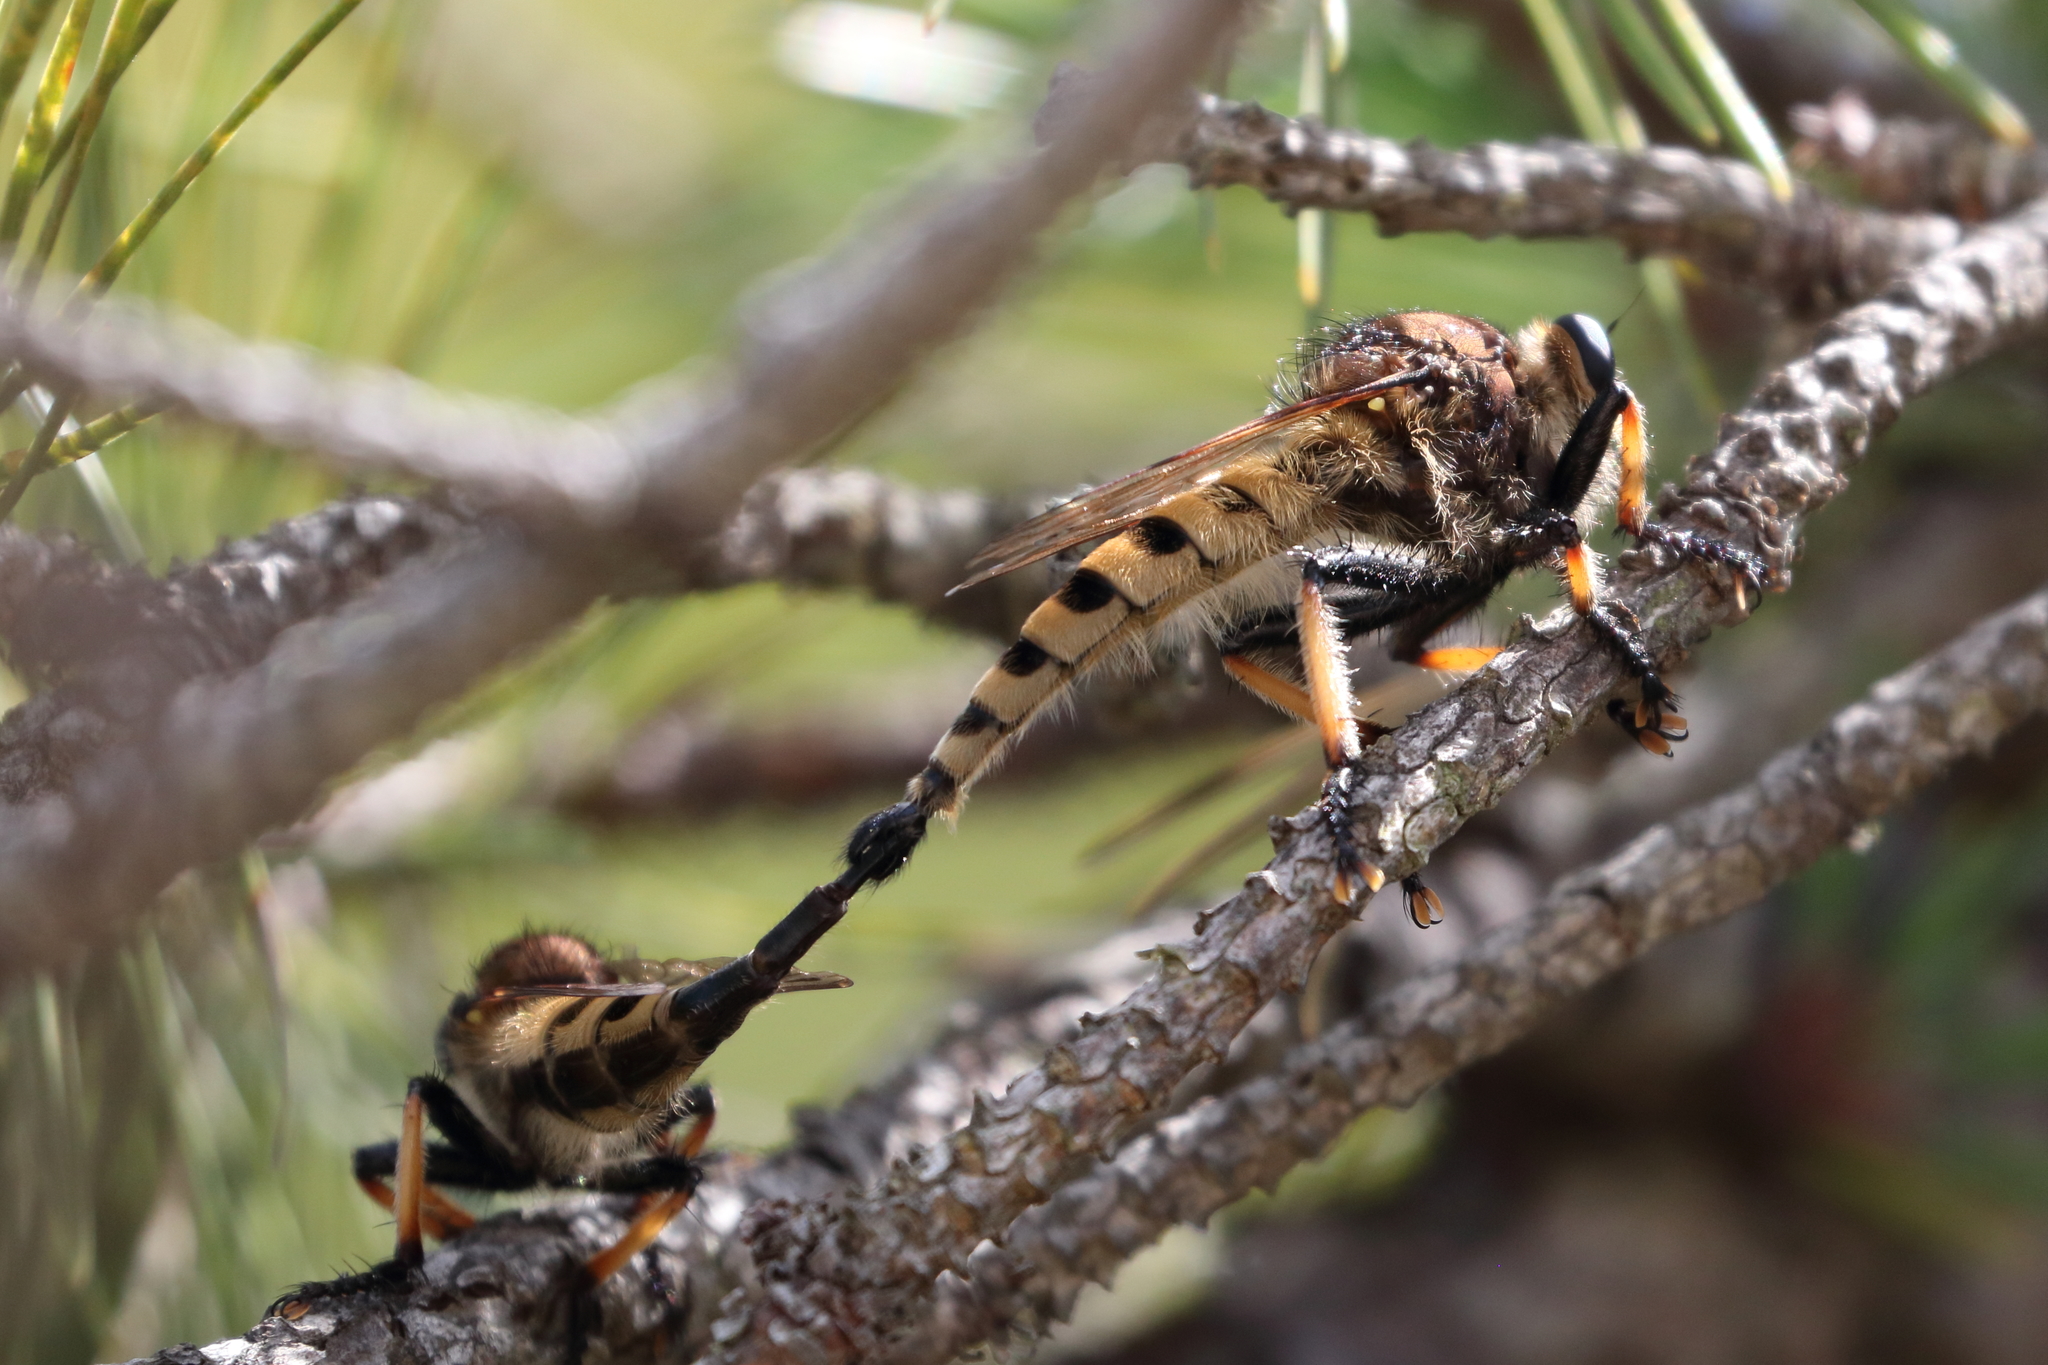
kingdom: Animalia
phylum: Arthropoda
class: Insecta
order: Diptera
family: Asilidae
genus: Promachus
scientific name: Promachus rufipes
